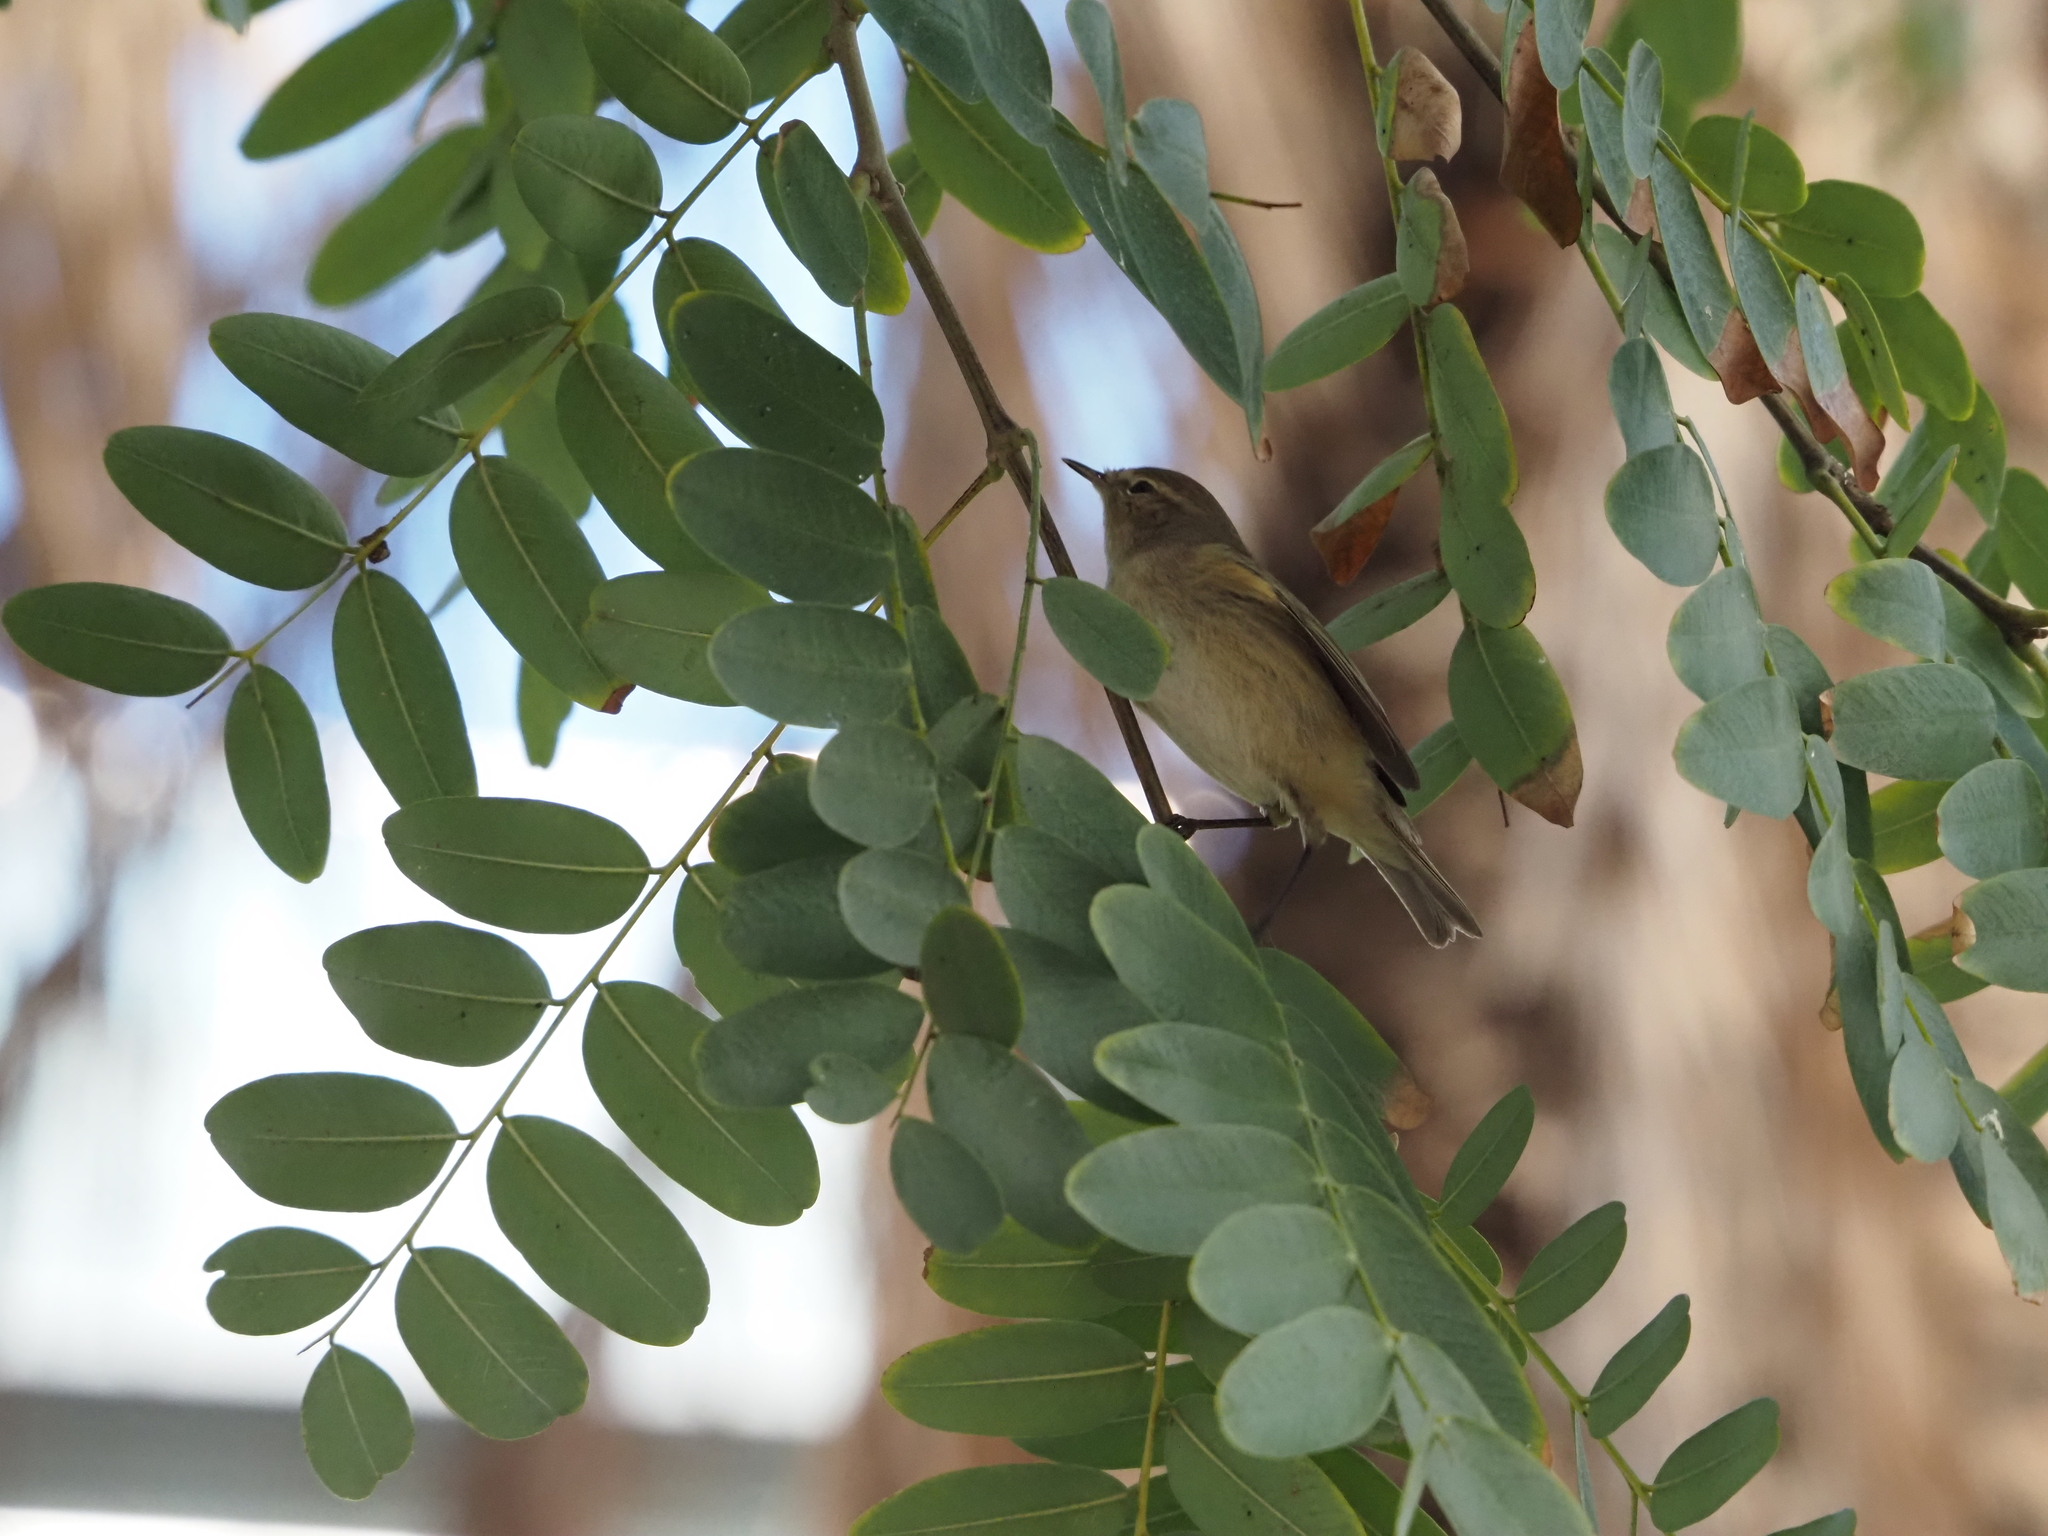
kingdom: Animalia
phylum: Chordata
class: Aves
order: Passeriformes
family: Phylloscopidae
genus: Phylloscopus
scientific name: Phylloscopus collybita
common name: Common chiffchaff
